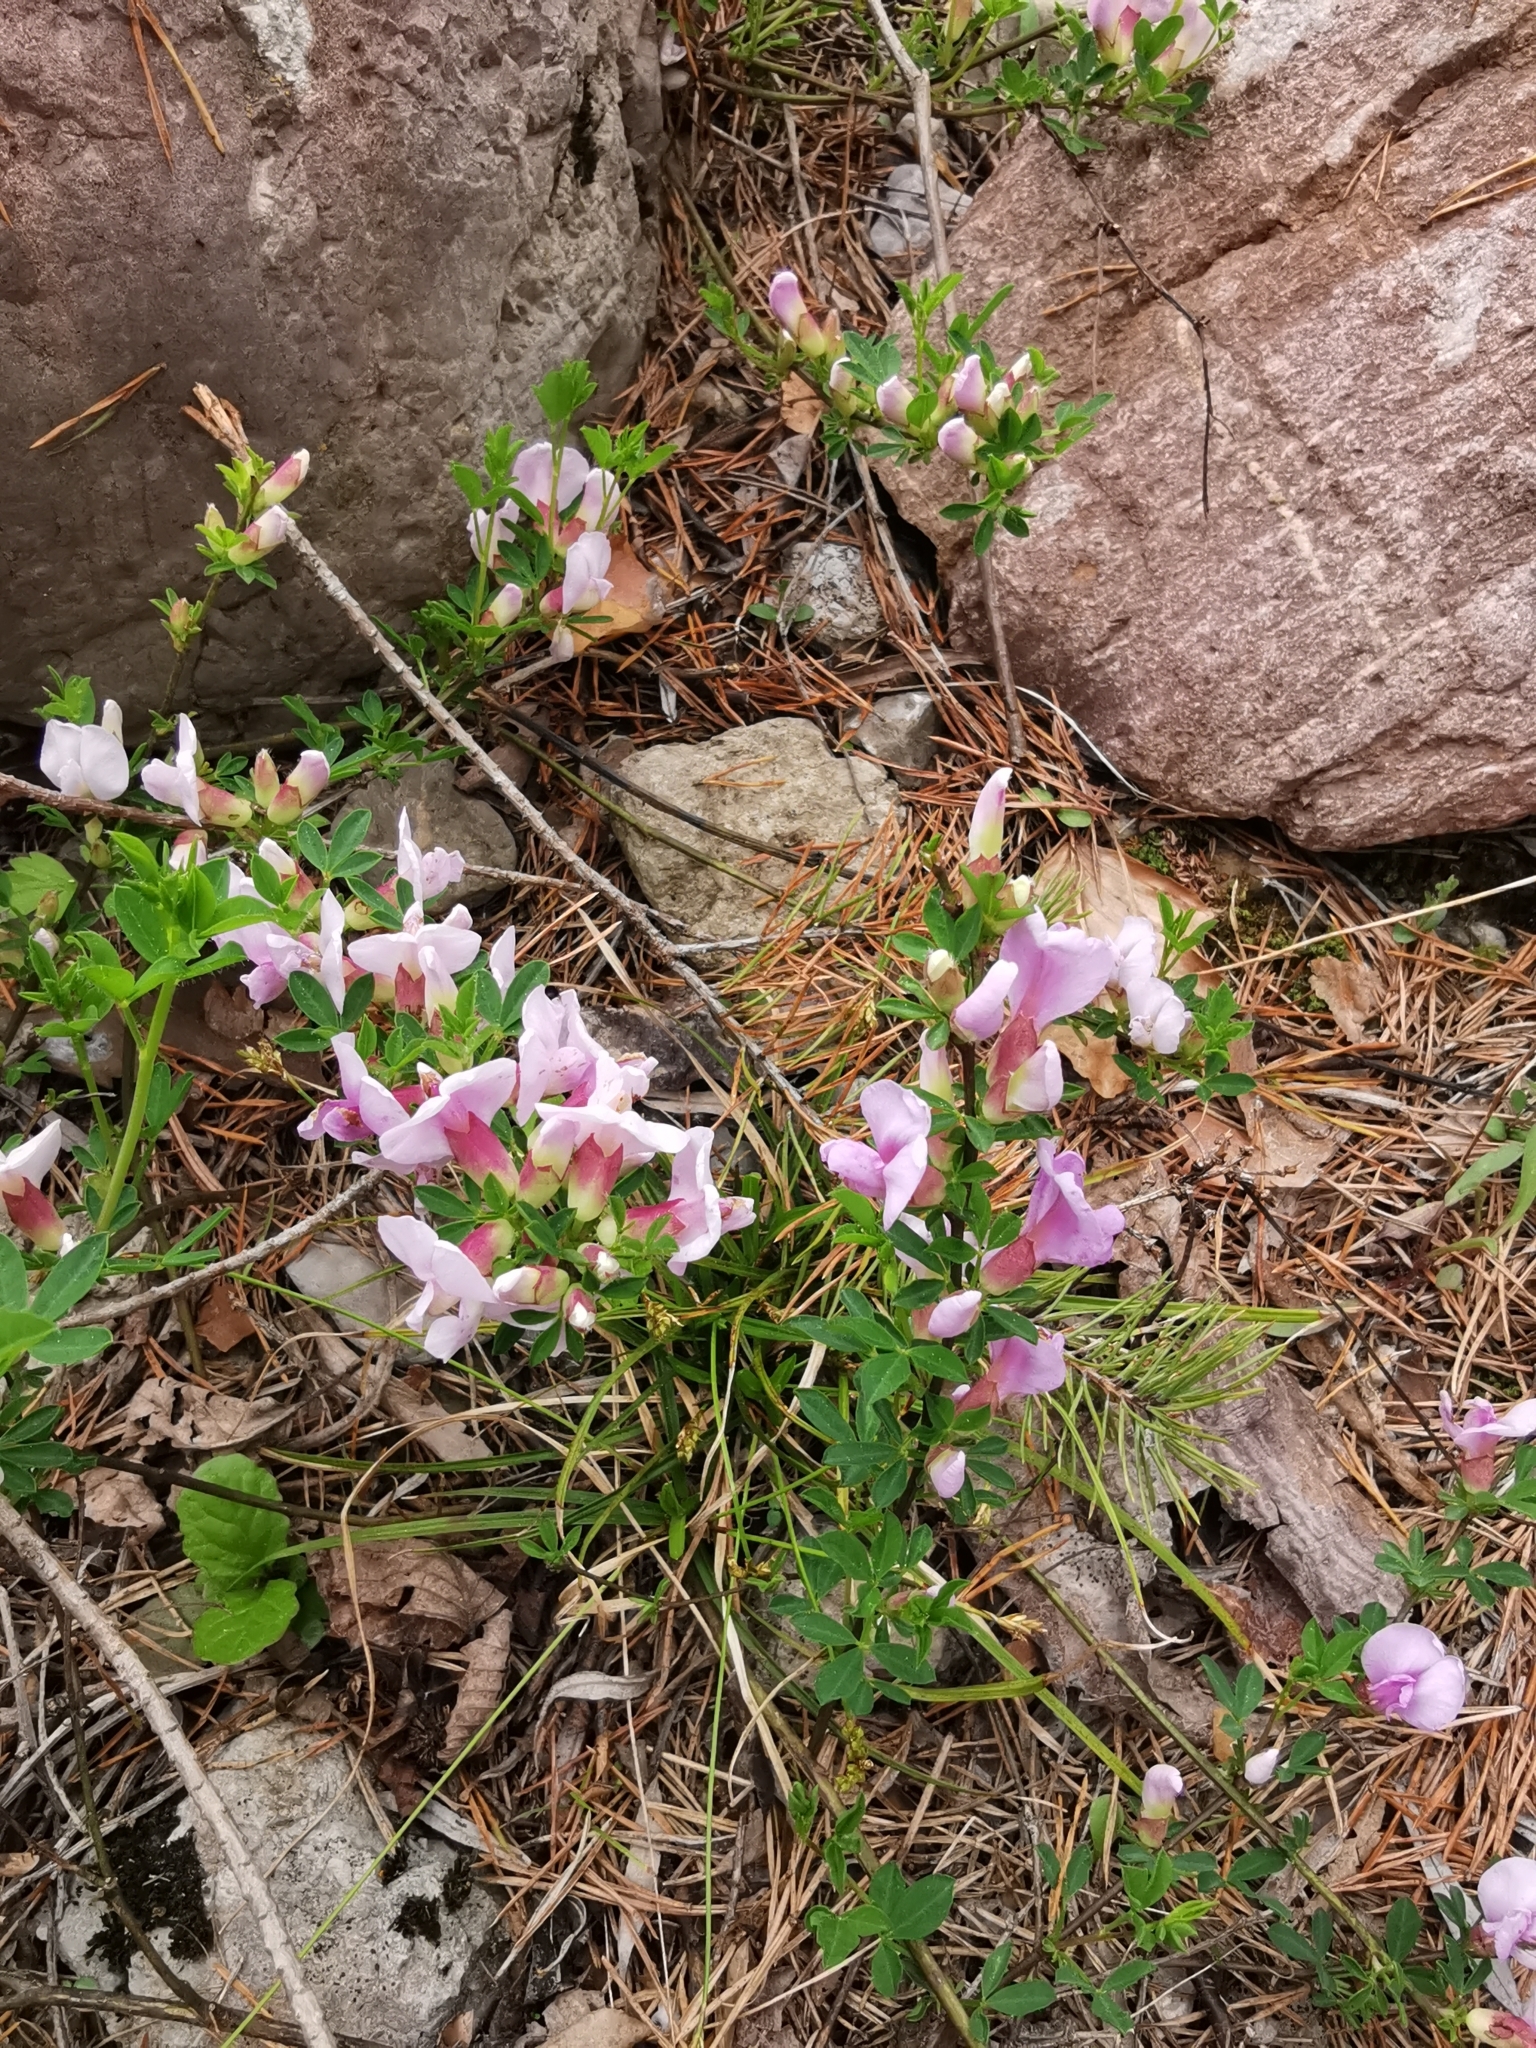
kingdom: Plantae
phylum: Tracheophyta
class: Magnoliopsida
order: Fabales
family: Fabaceae
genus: Chamaecytisus
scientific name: Chamaecytisus purpureus
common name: Purple broom
